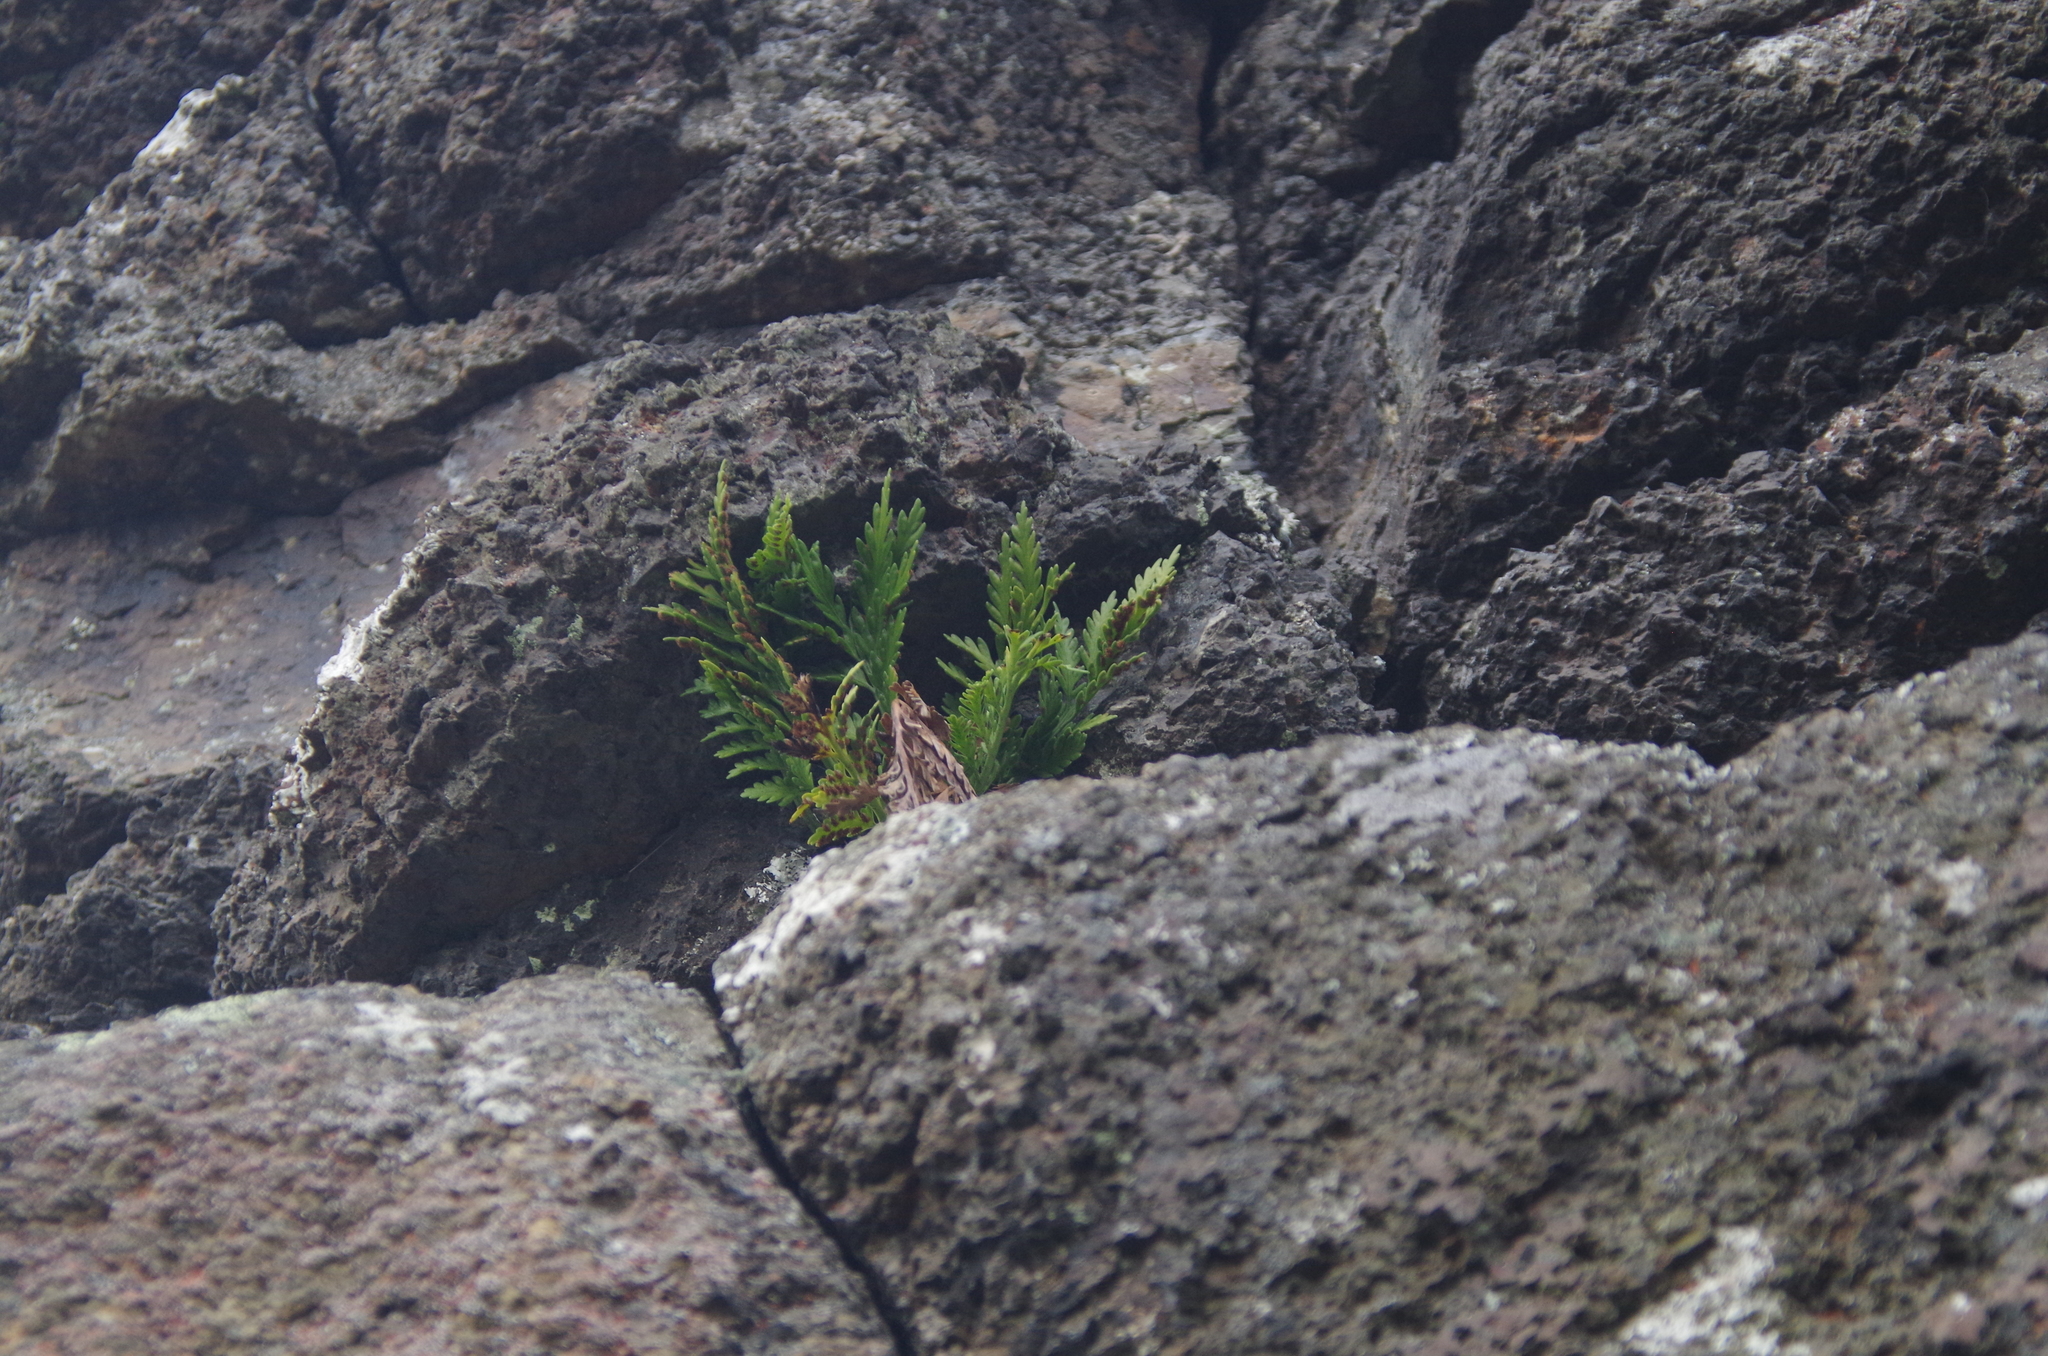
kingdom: Plantae
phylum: Tracheophyta
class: Polypodiopsida
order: Polypodiales
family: Aspleniaceae
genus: Asplenium
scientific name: Asplenium appendiculatum
